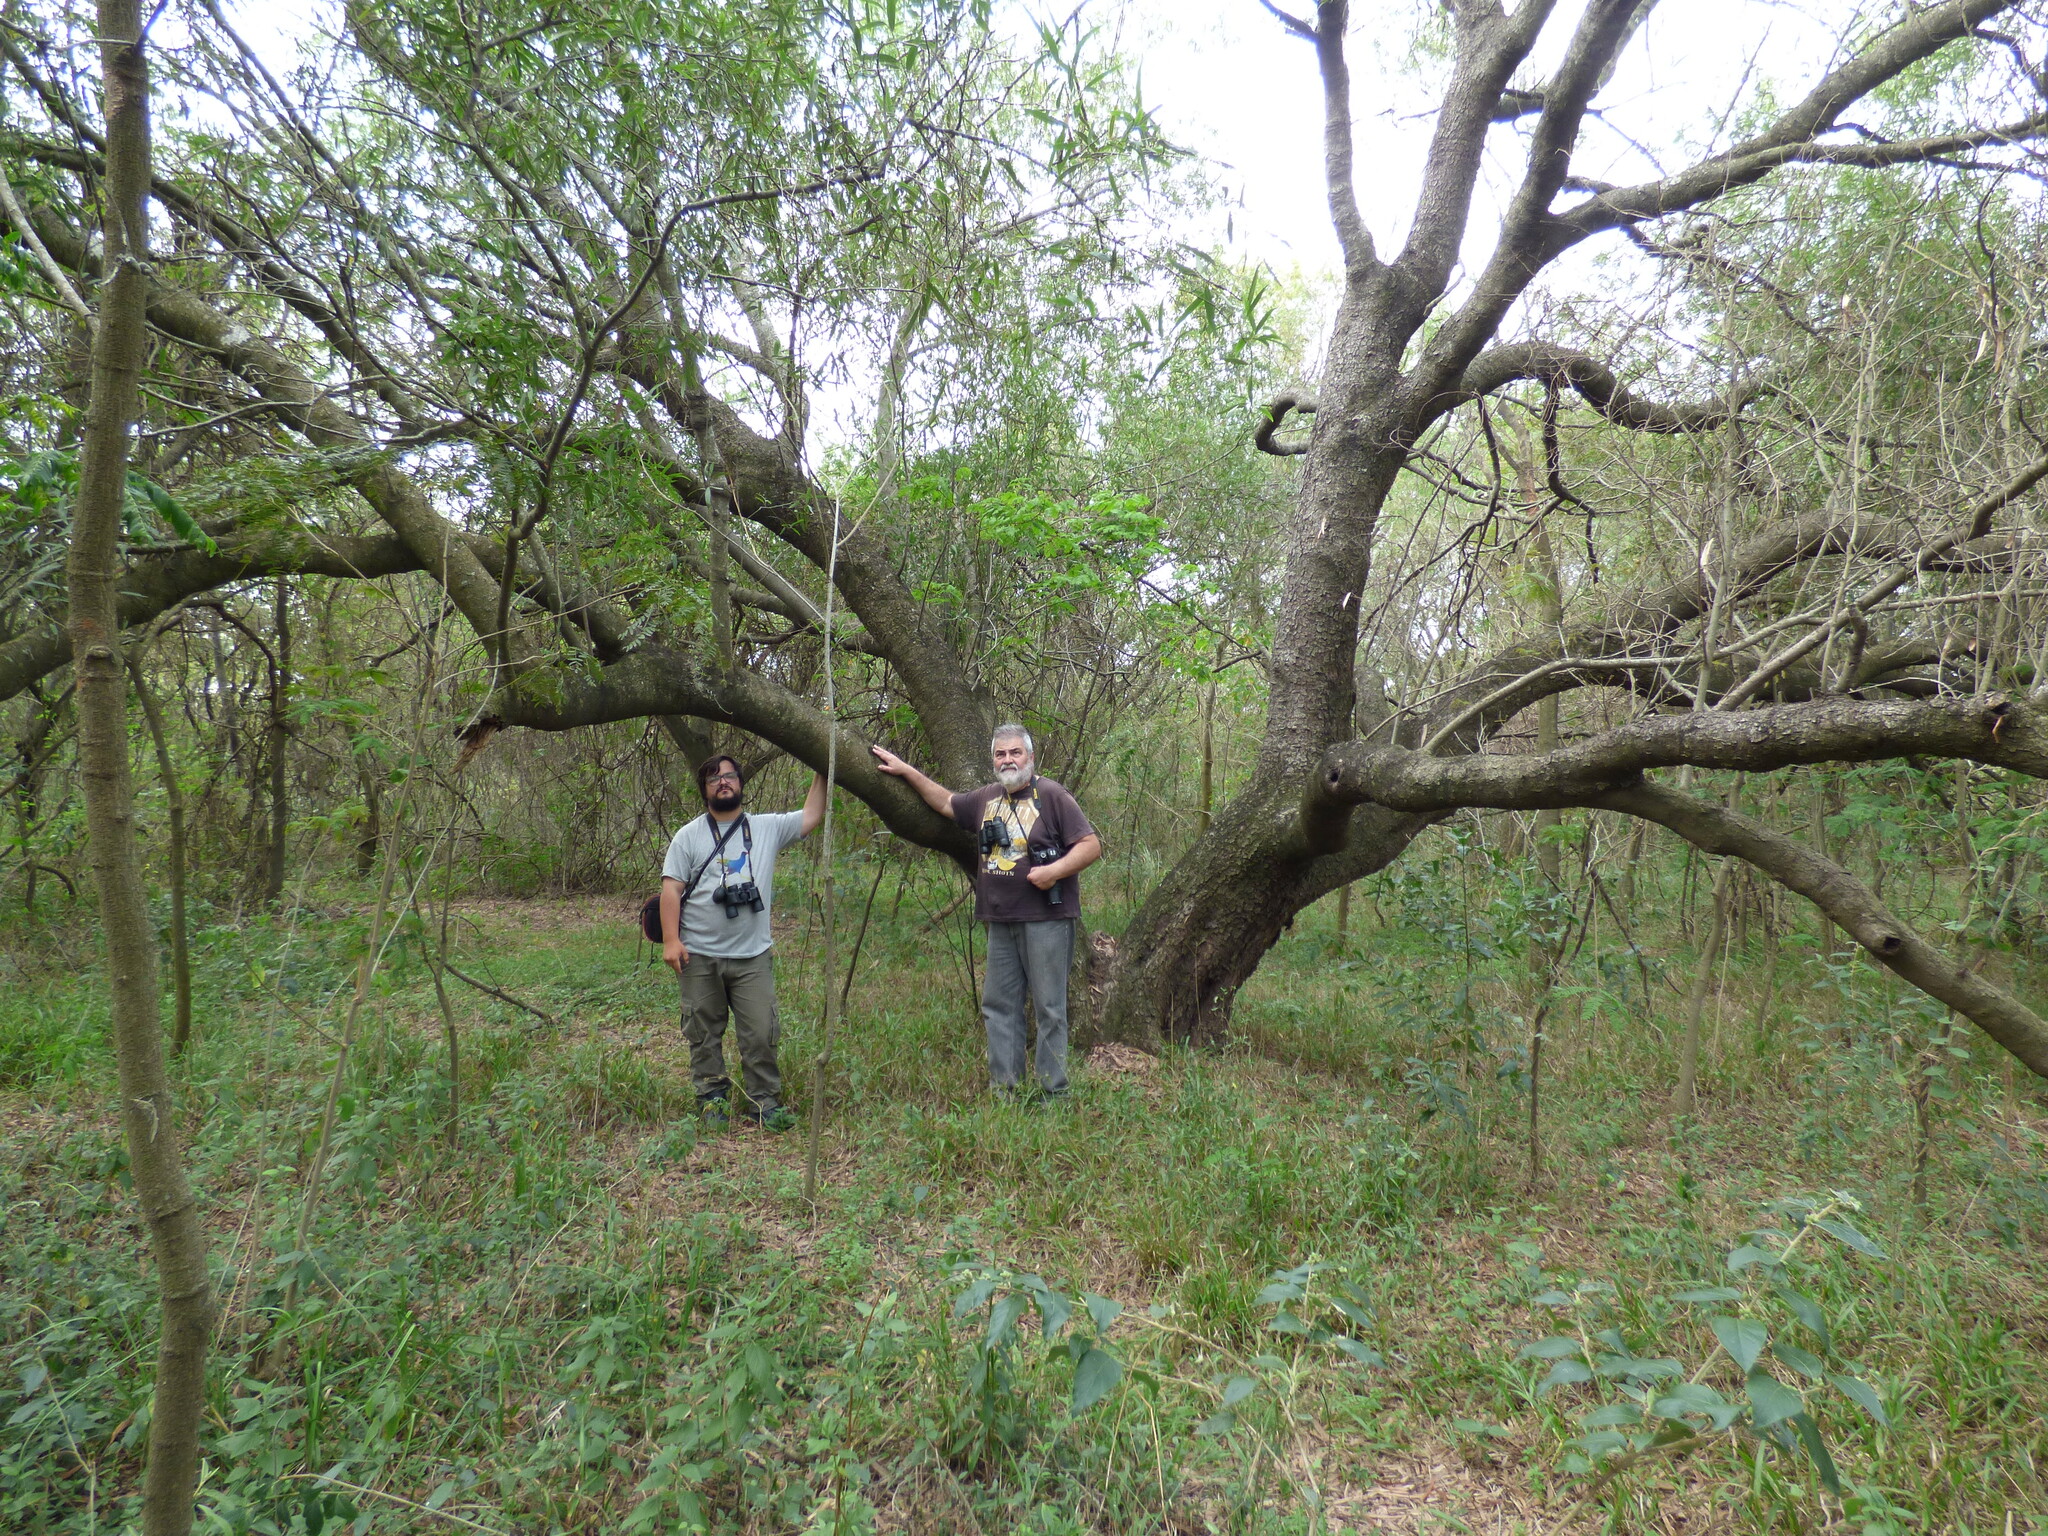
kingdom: Plantae
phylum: Tracheophyta
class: Magnoliopsida
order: Laurales
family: Lauraceae
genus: Nectandra
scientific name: Nectandra angustifolia
